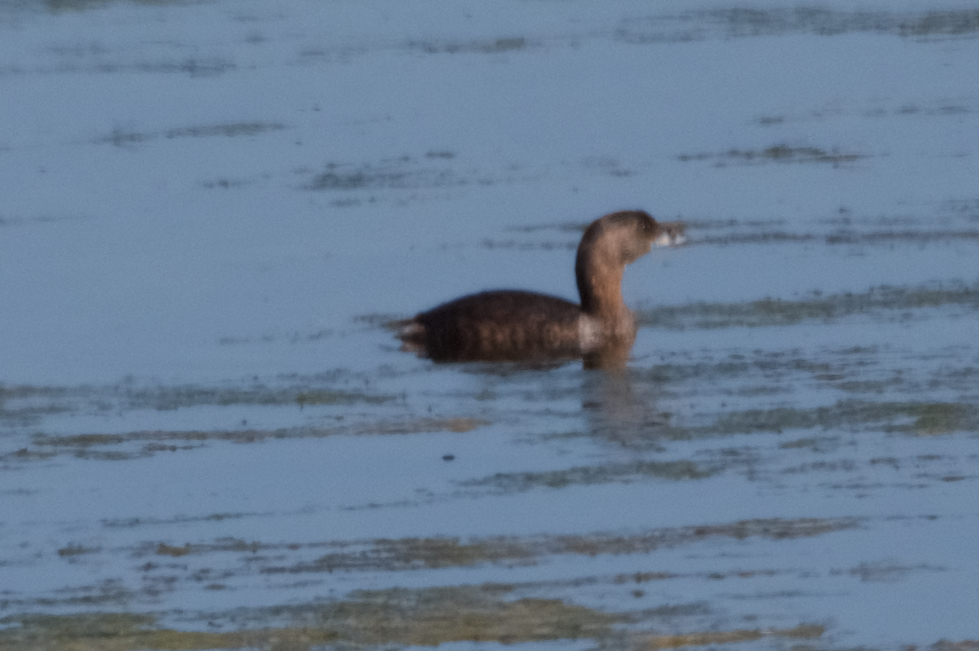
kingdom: Animalia
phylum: Chordata
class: Aves
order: Podicipediformes
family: Podicipedidae
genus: Podilymbus
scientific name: Podilymbus podiceps
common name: Pied-billed grebe
